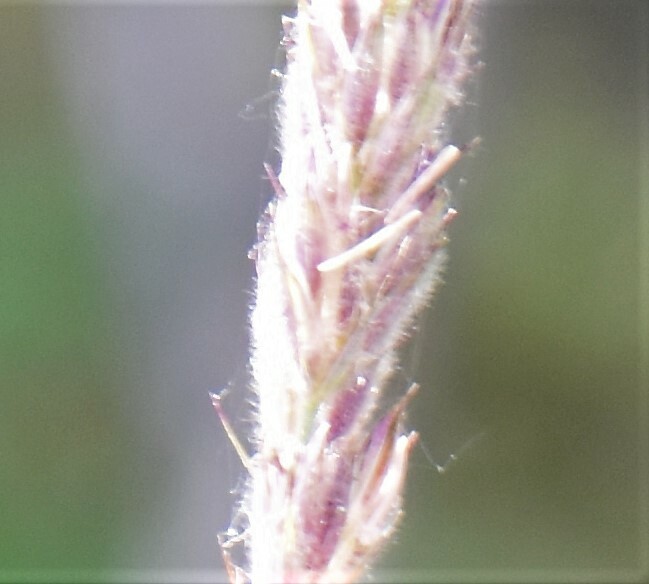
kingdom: Plantae
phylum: Tracheophyta
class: Liliopsida
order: Poales
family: Poaceae
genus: Leymus
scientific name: Leymus innovatus
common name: Boreal wild rye
